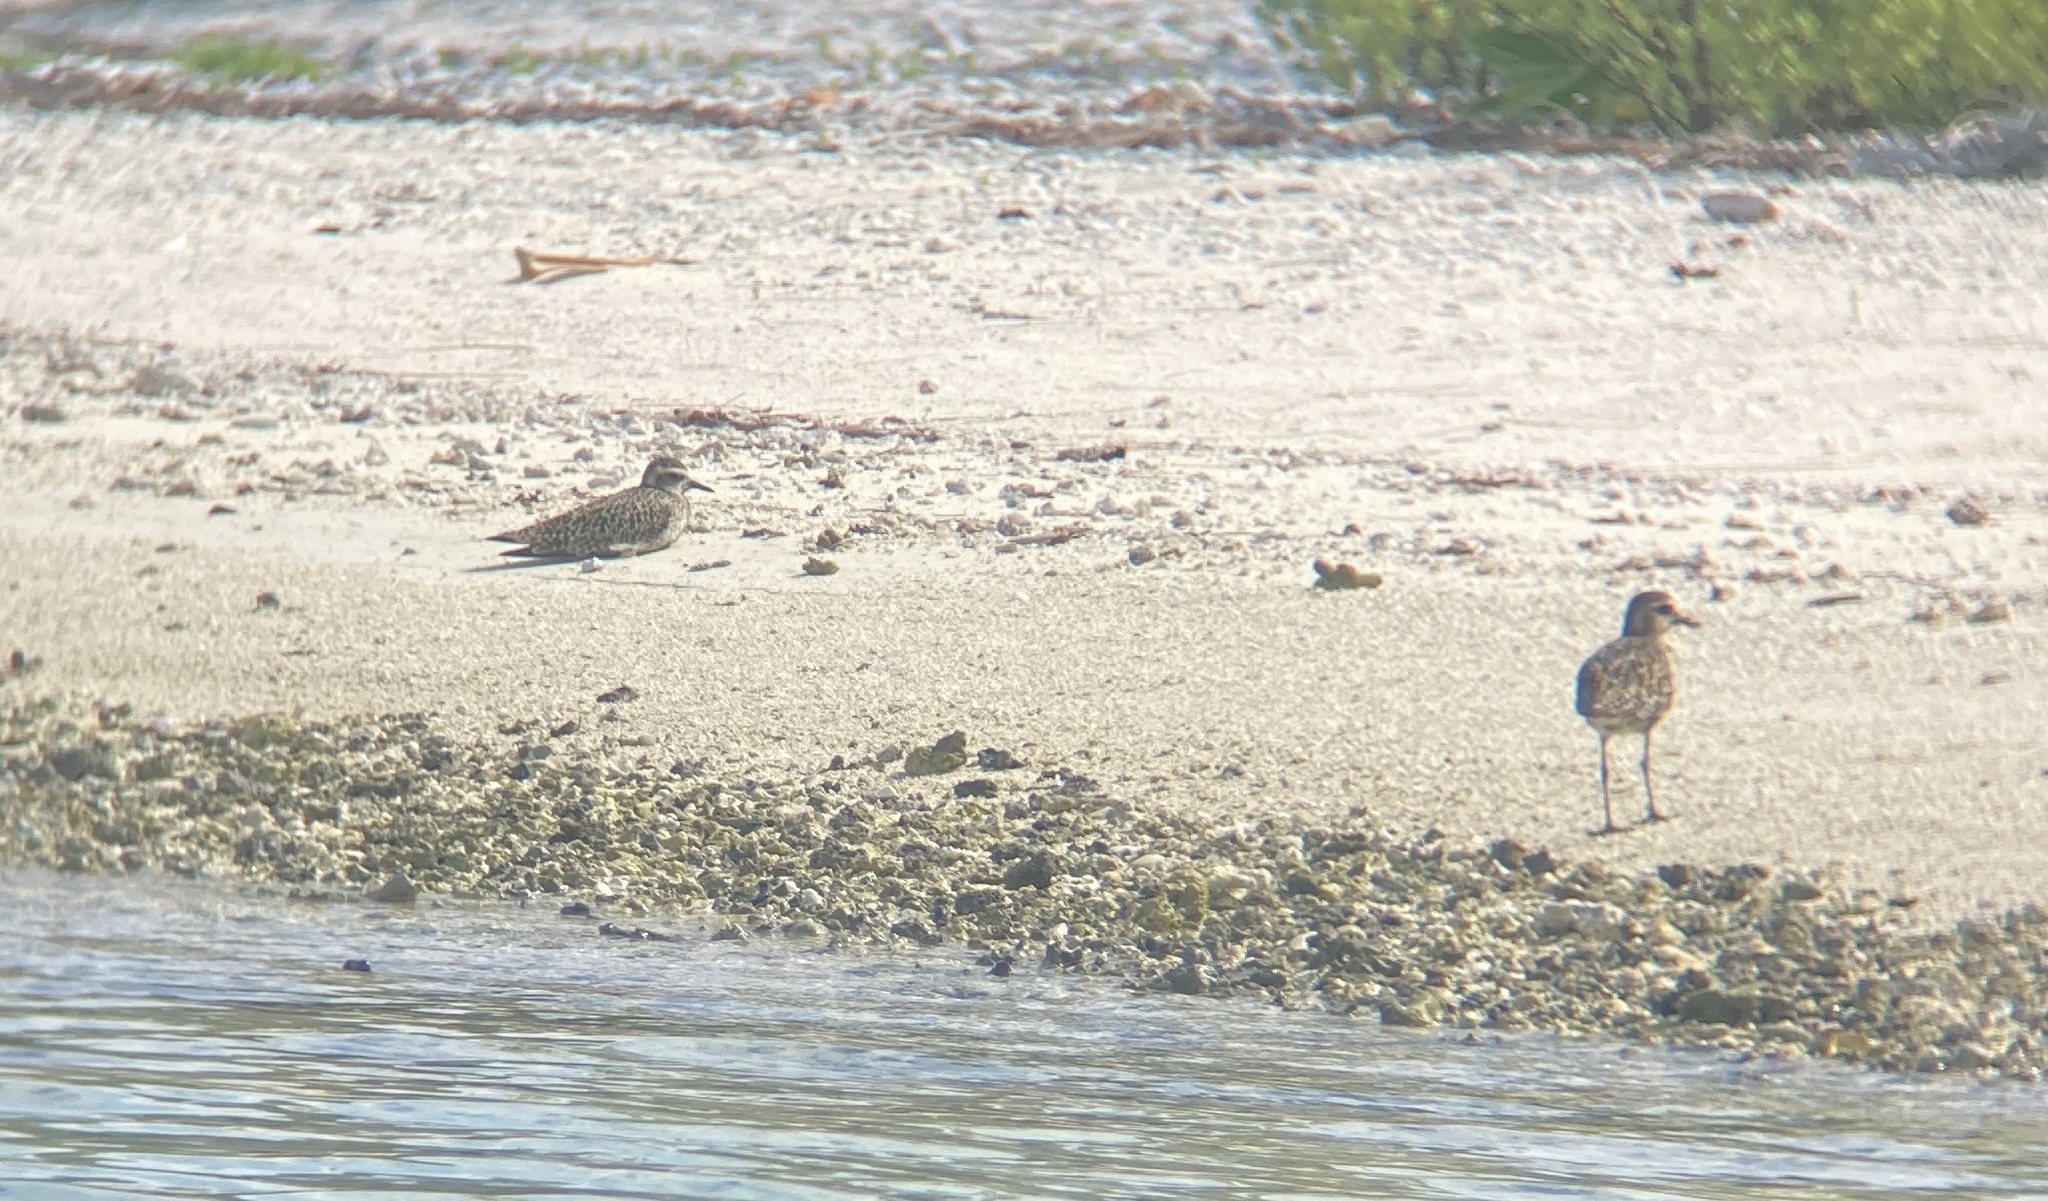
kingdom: Animalia
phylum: Chordata
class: Aves
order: Charadriiformes
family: Charadriidae
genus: Pluvialis
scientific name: Pluvialis fulva
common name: Pacific golden plover
